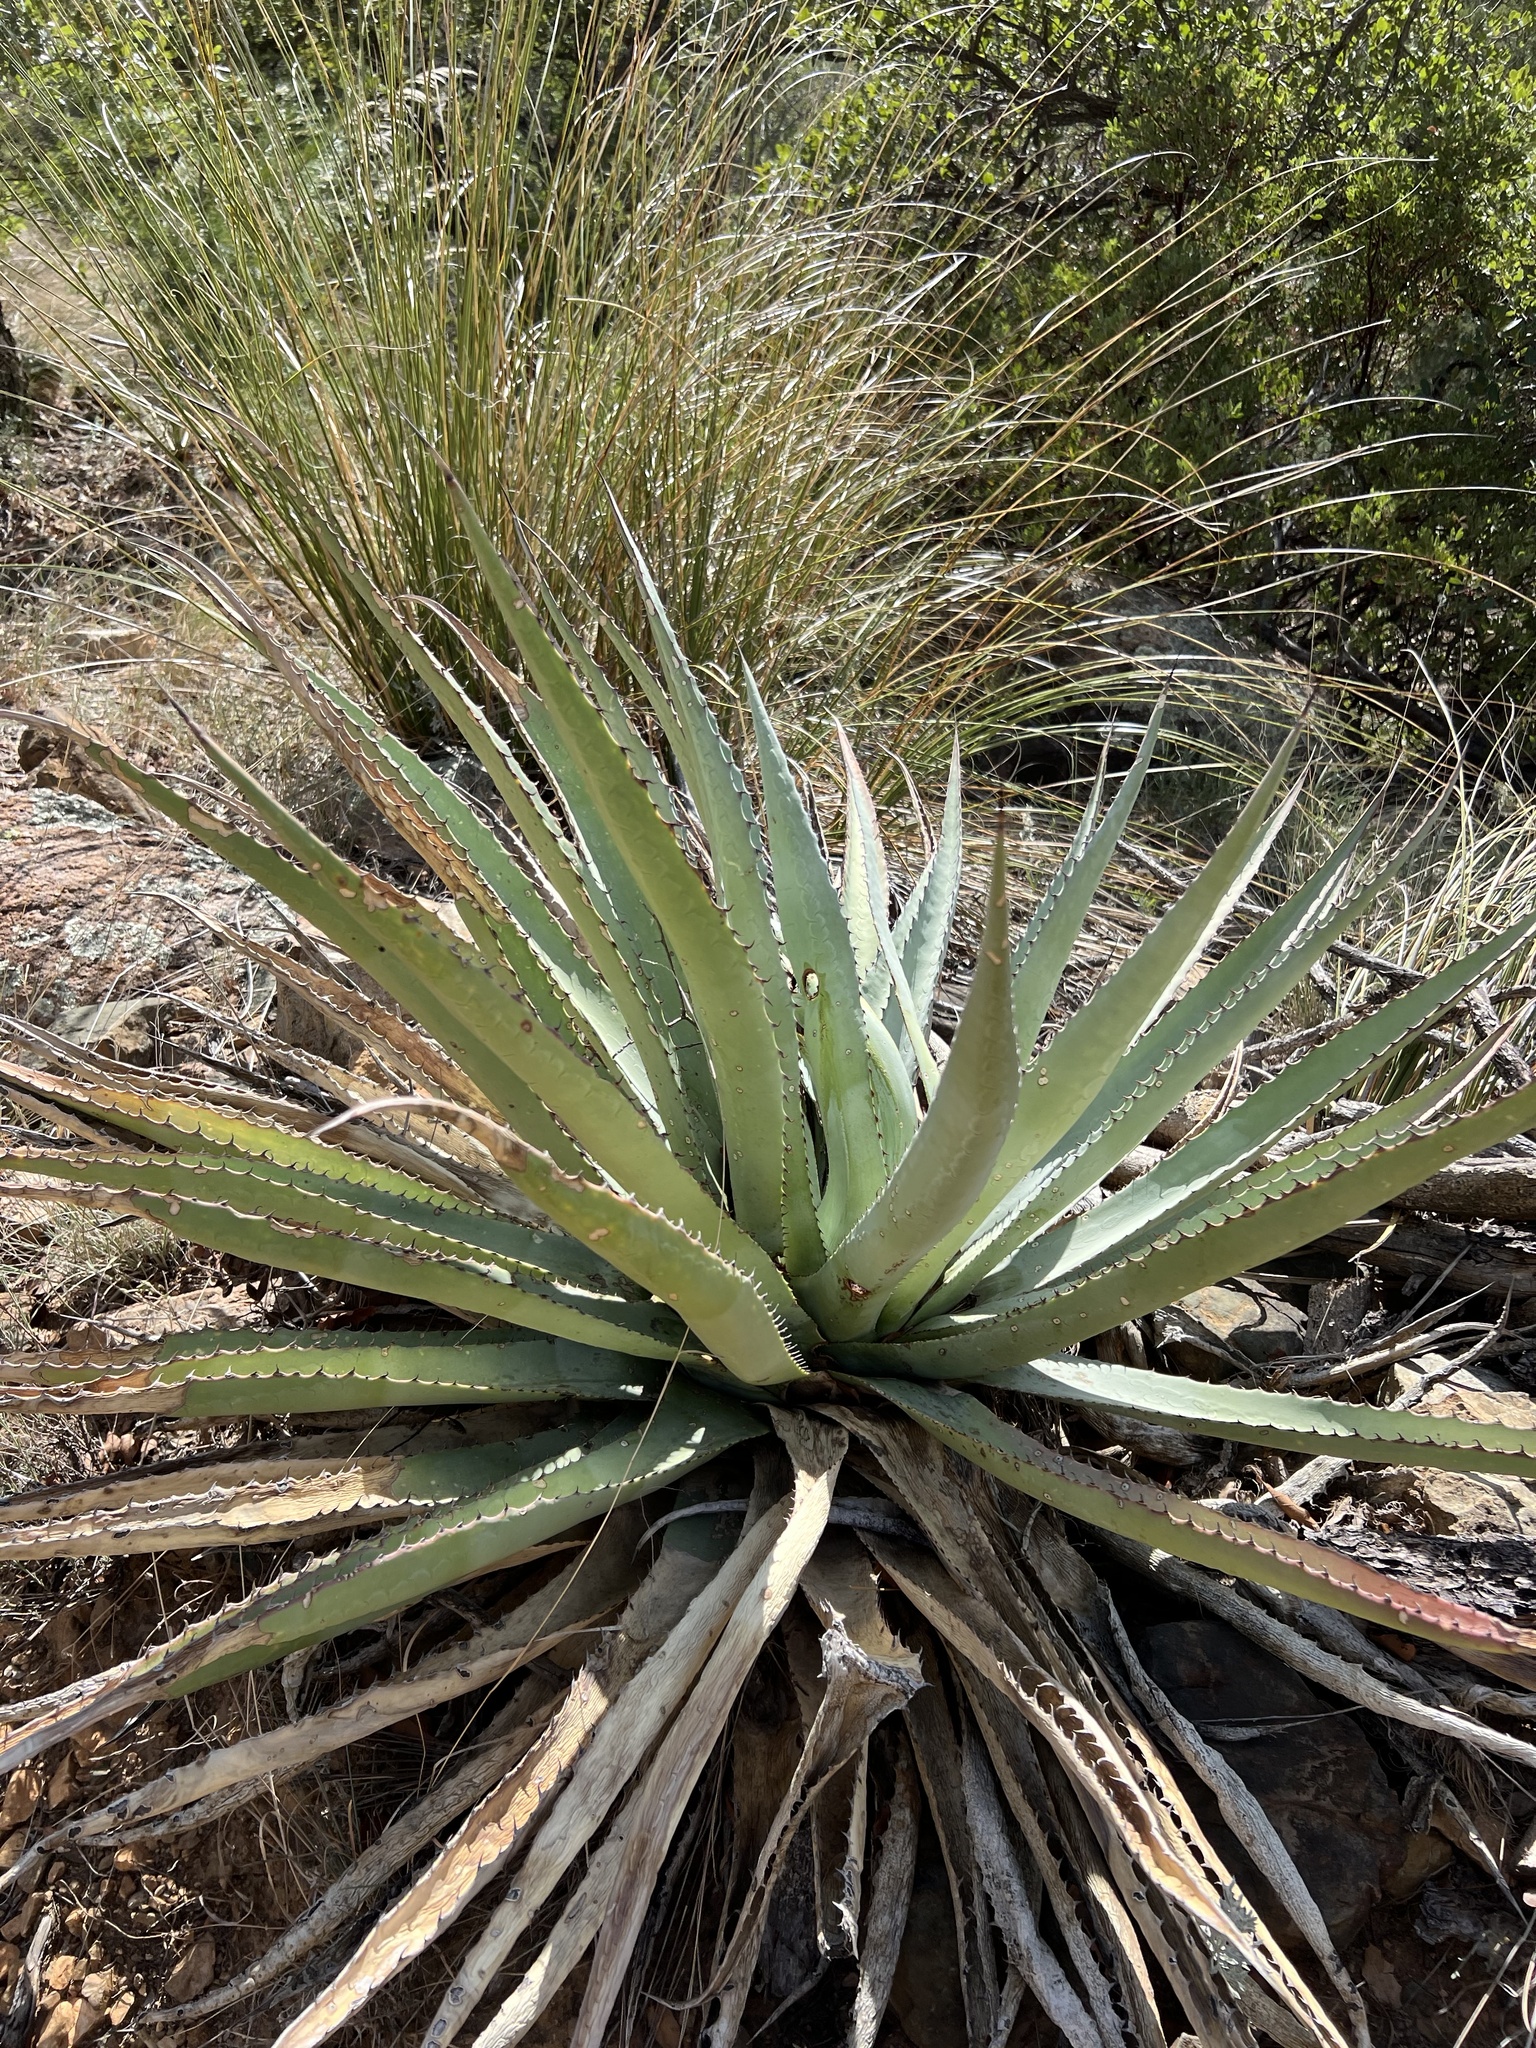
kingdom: Plantae
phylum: Tracheophyta
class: Liliopsida
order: Asparagales
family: Asparagaceae
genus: Agave
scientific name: Agave palmeri
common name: Palmer agave
